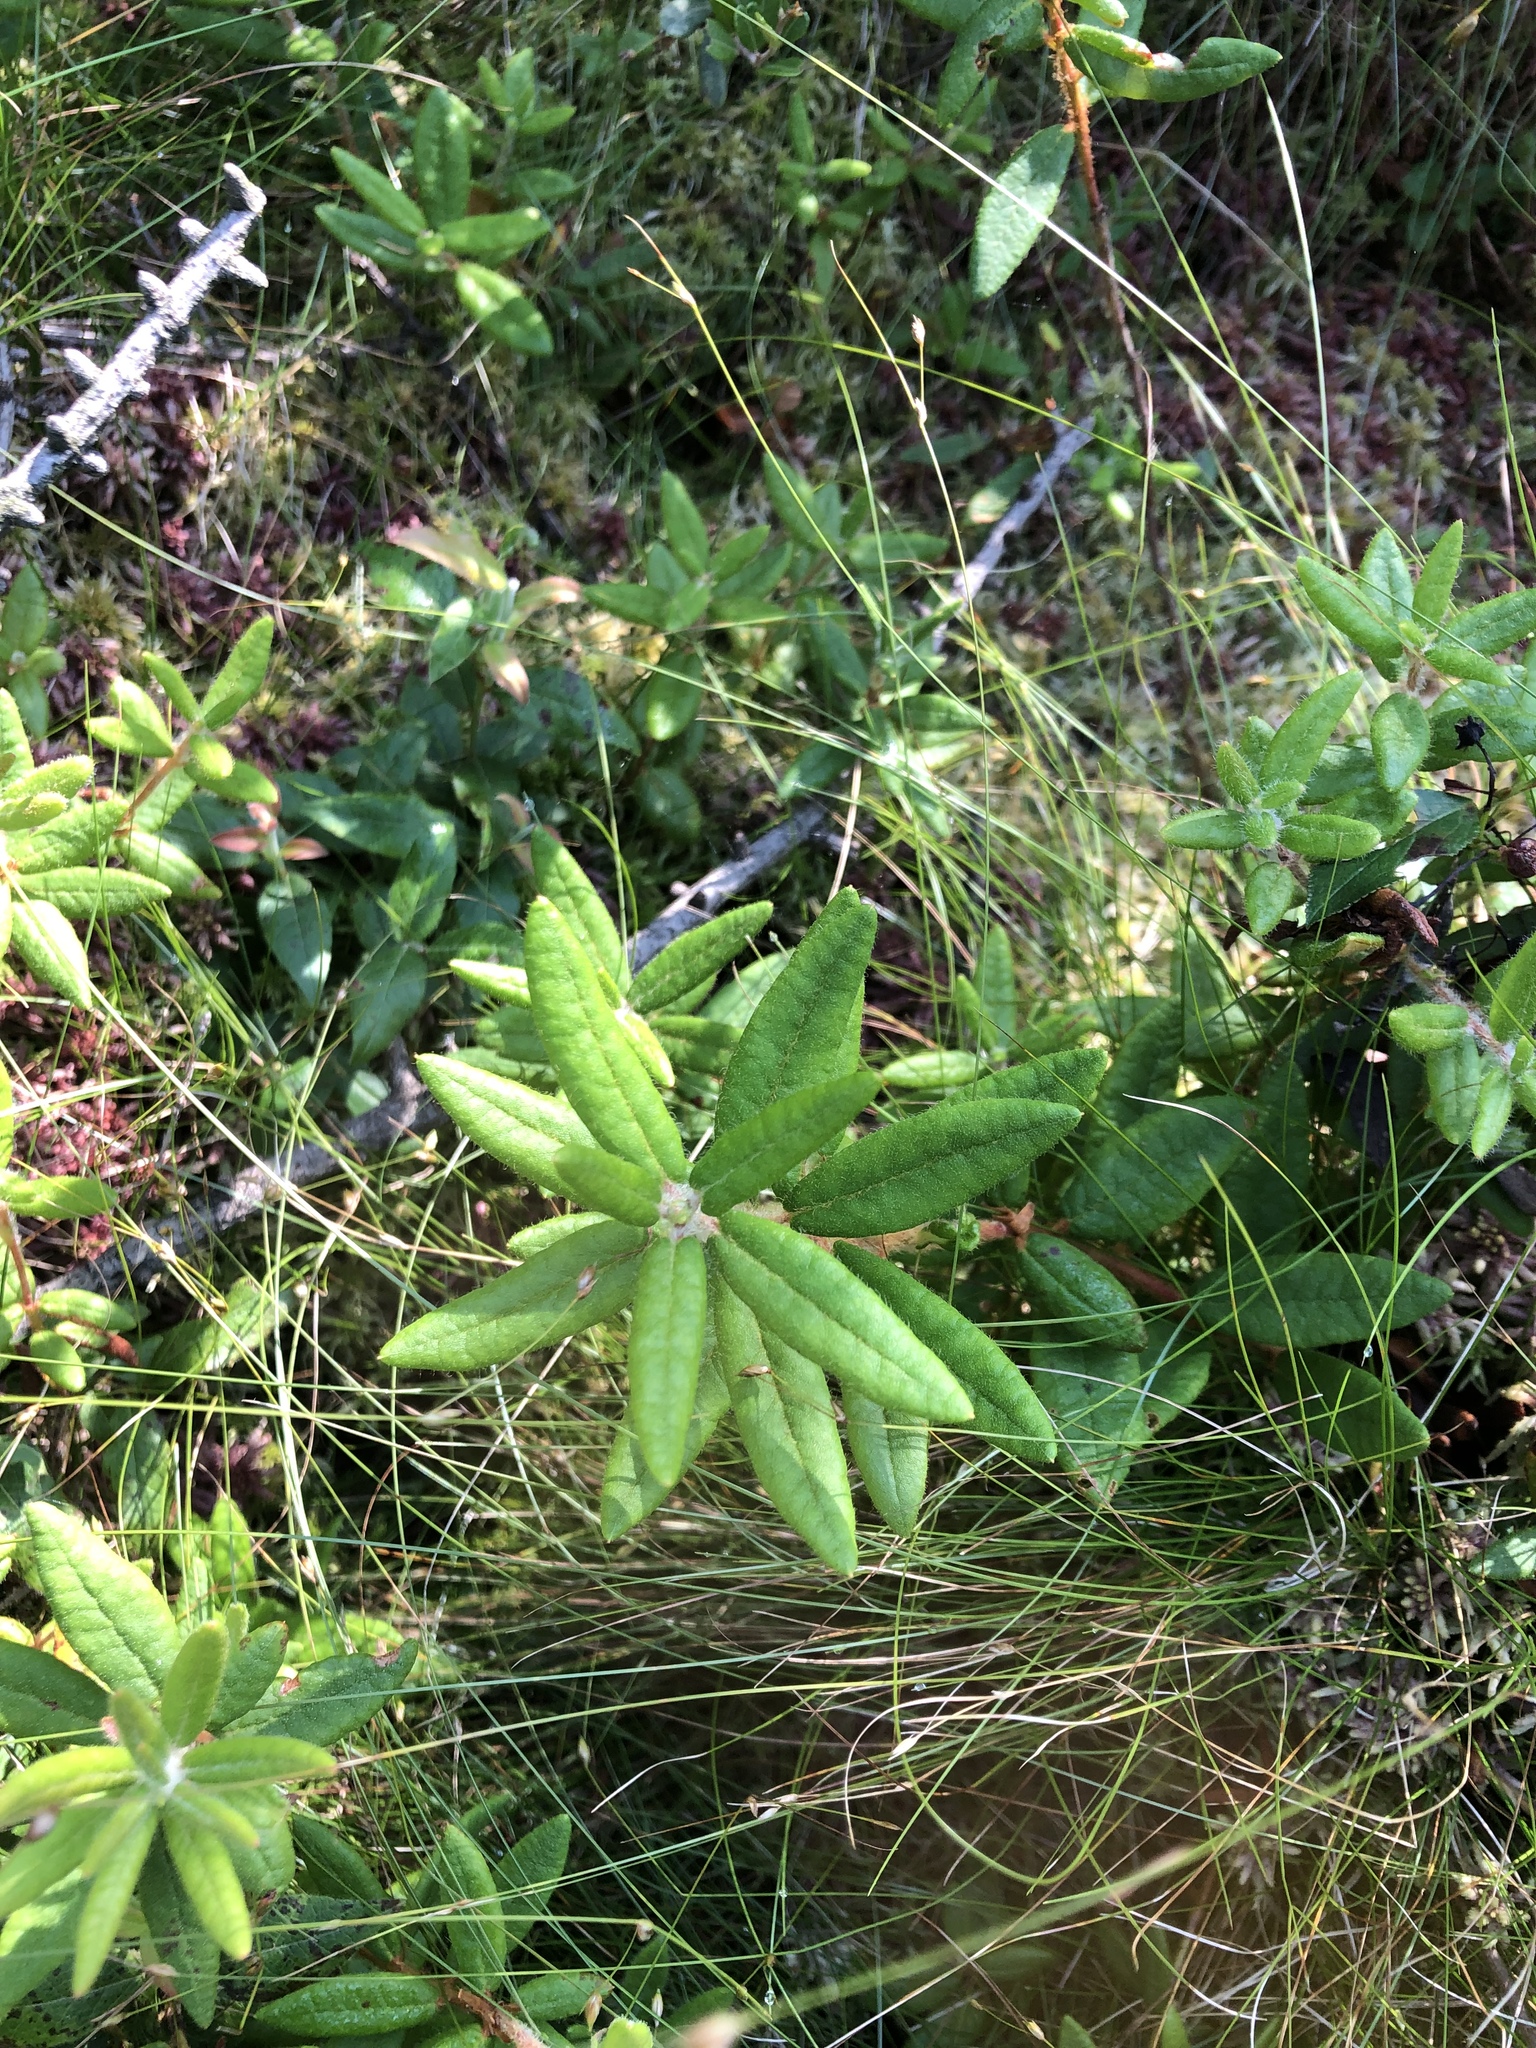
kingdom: Plantae
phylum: Tracheophyta
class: Magnoliopsida
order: Ericales
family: Ericaceae
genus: Rhododendron
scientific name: Rhododendron groenlandicum
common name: Bog labrador tea
